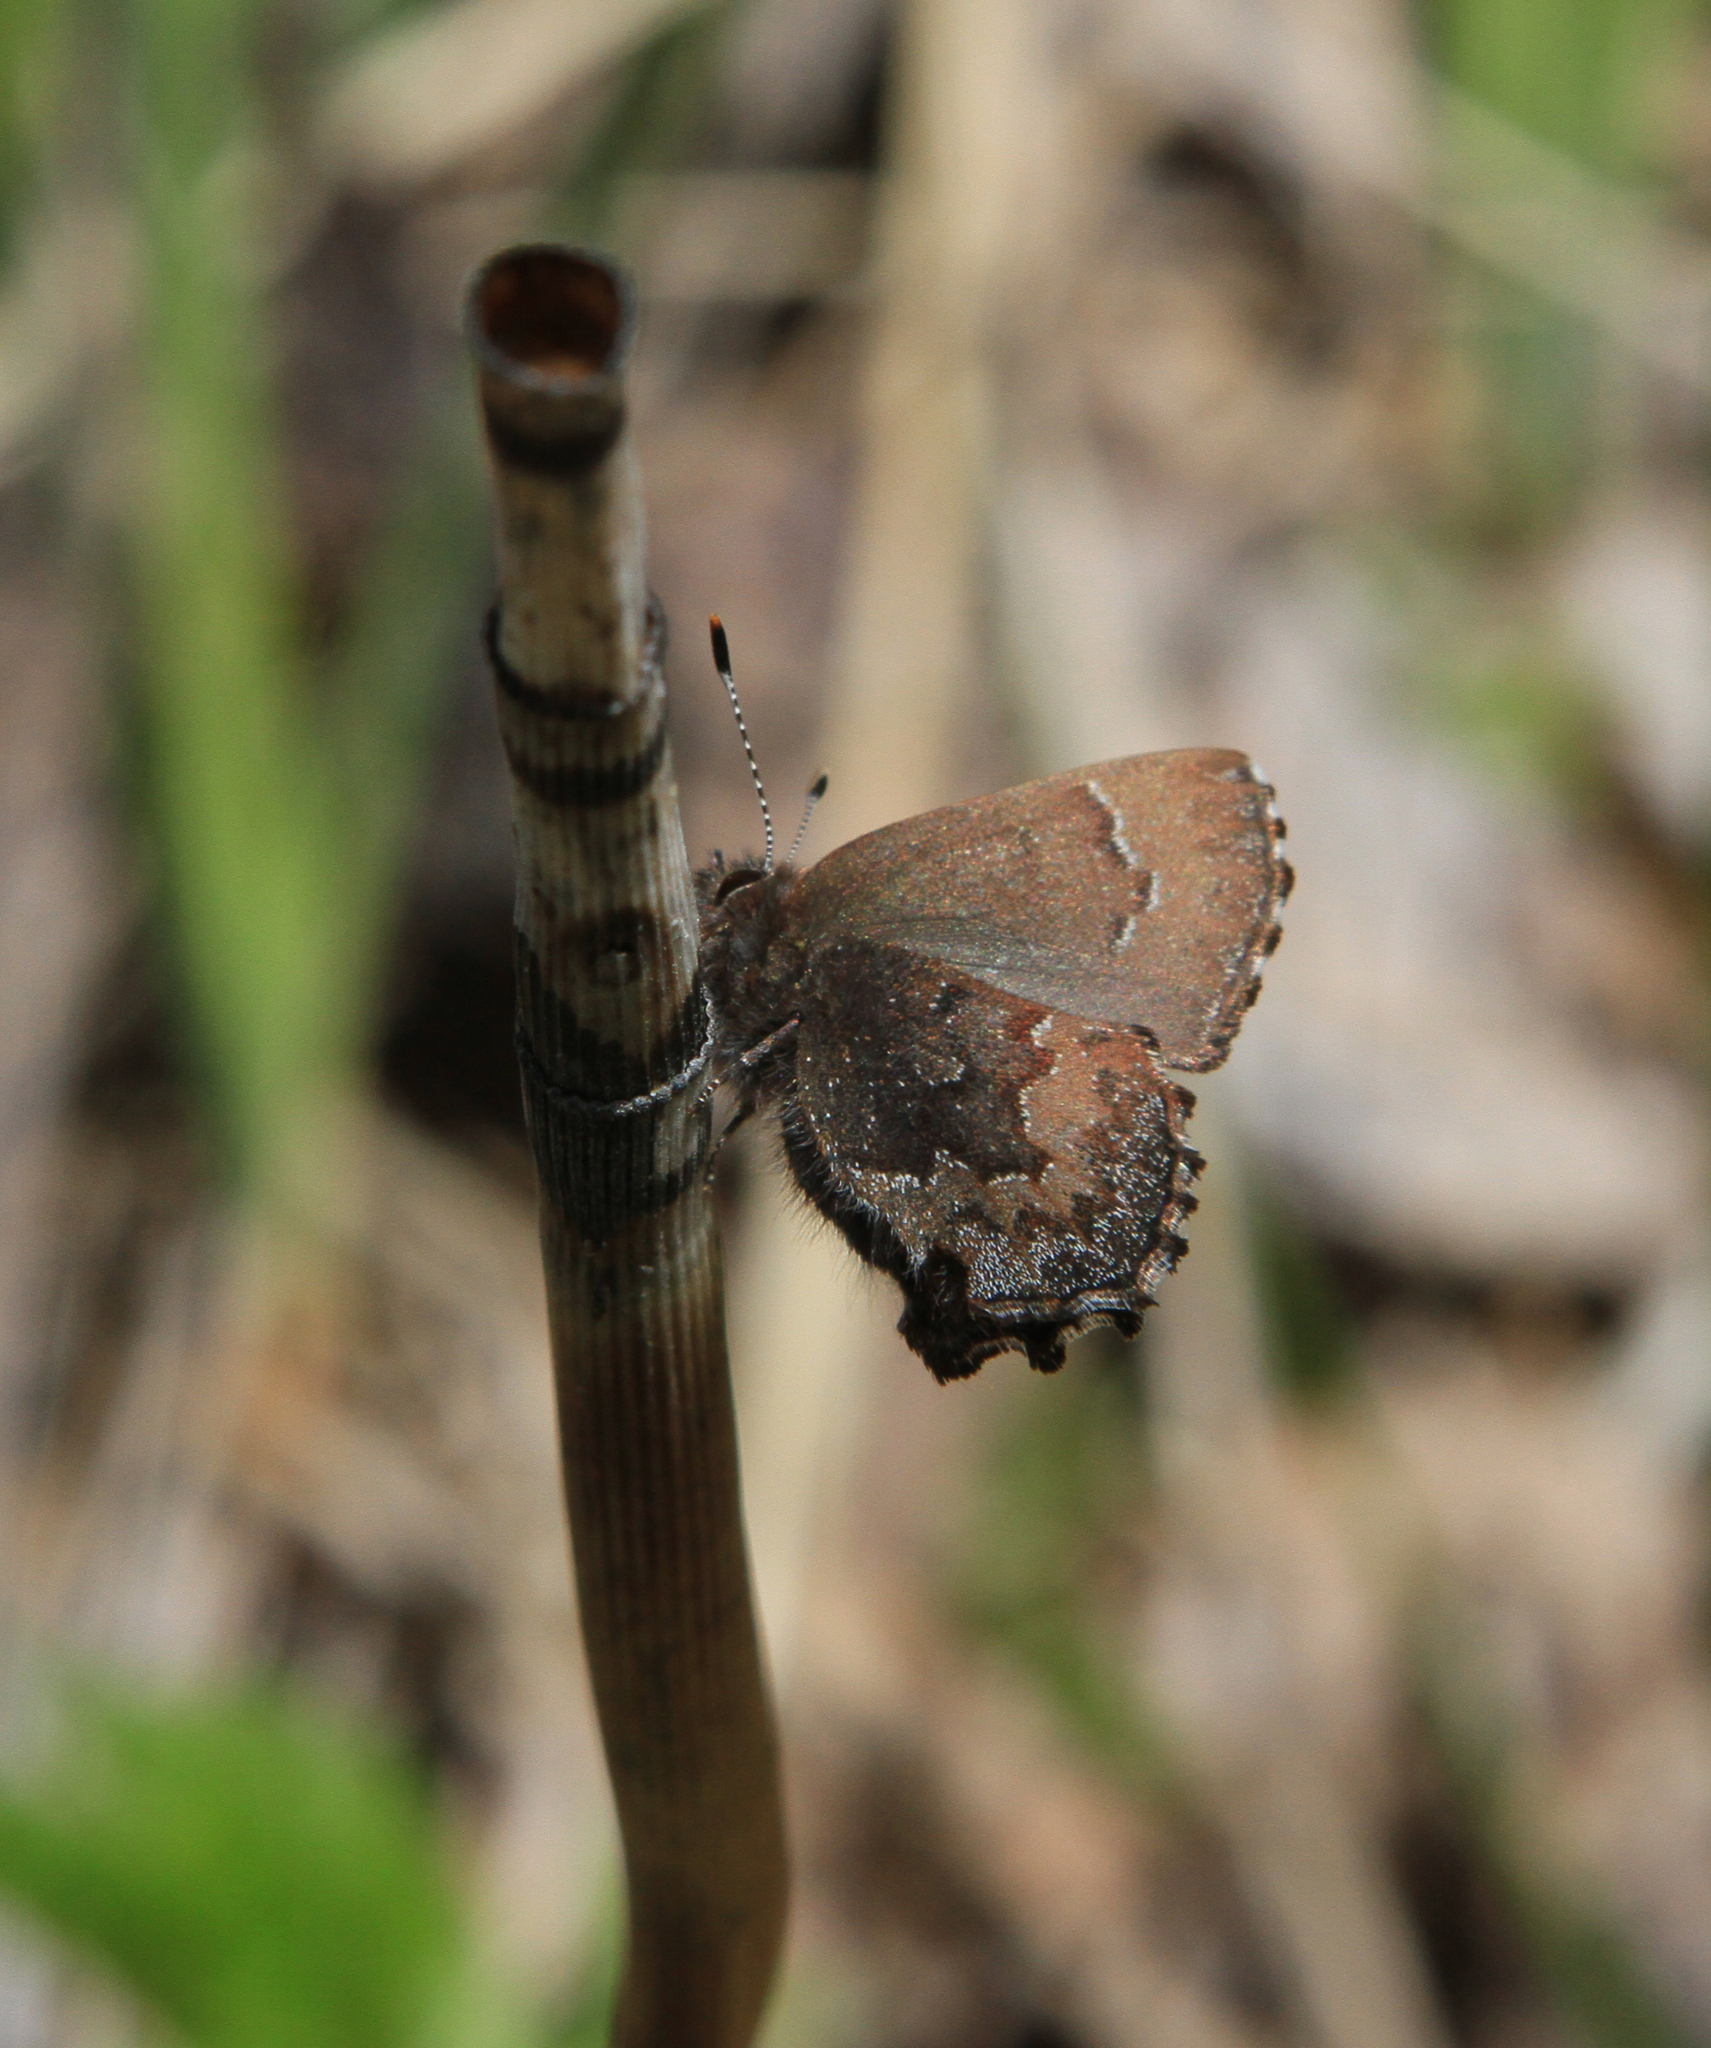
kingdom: Animalia
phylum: Arthropoda
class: Insecta
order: Lepidoptera
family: Lycaenidae
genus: Ginzia
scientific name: Ginzia Ahlbergia frivaldszkyi
